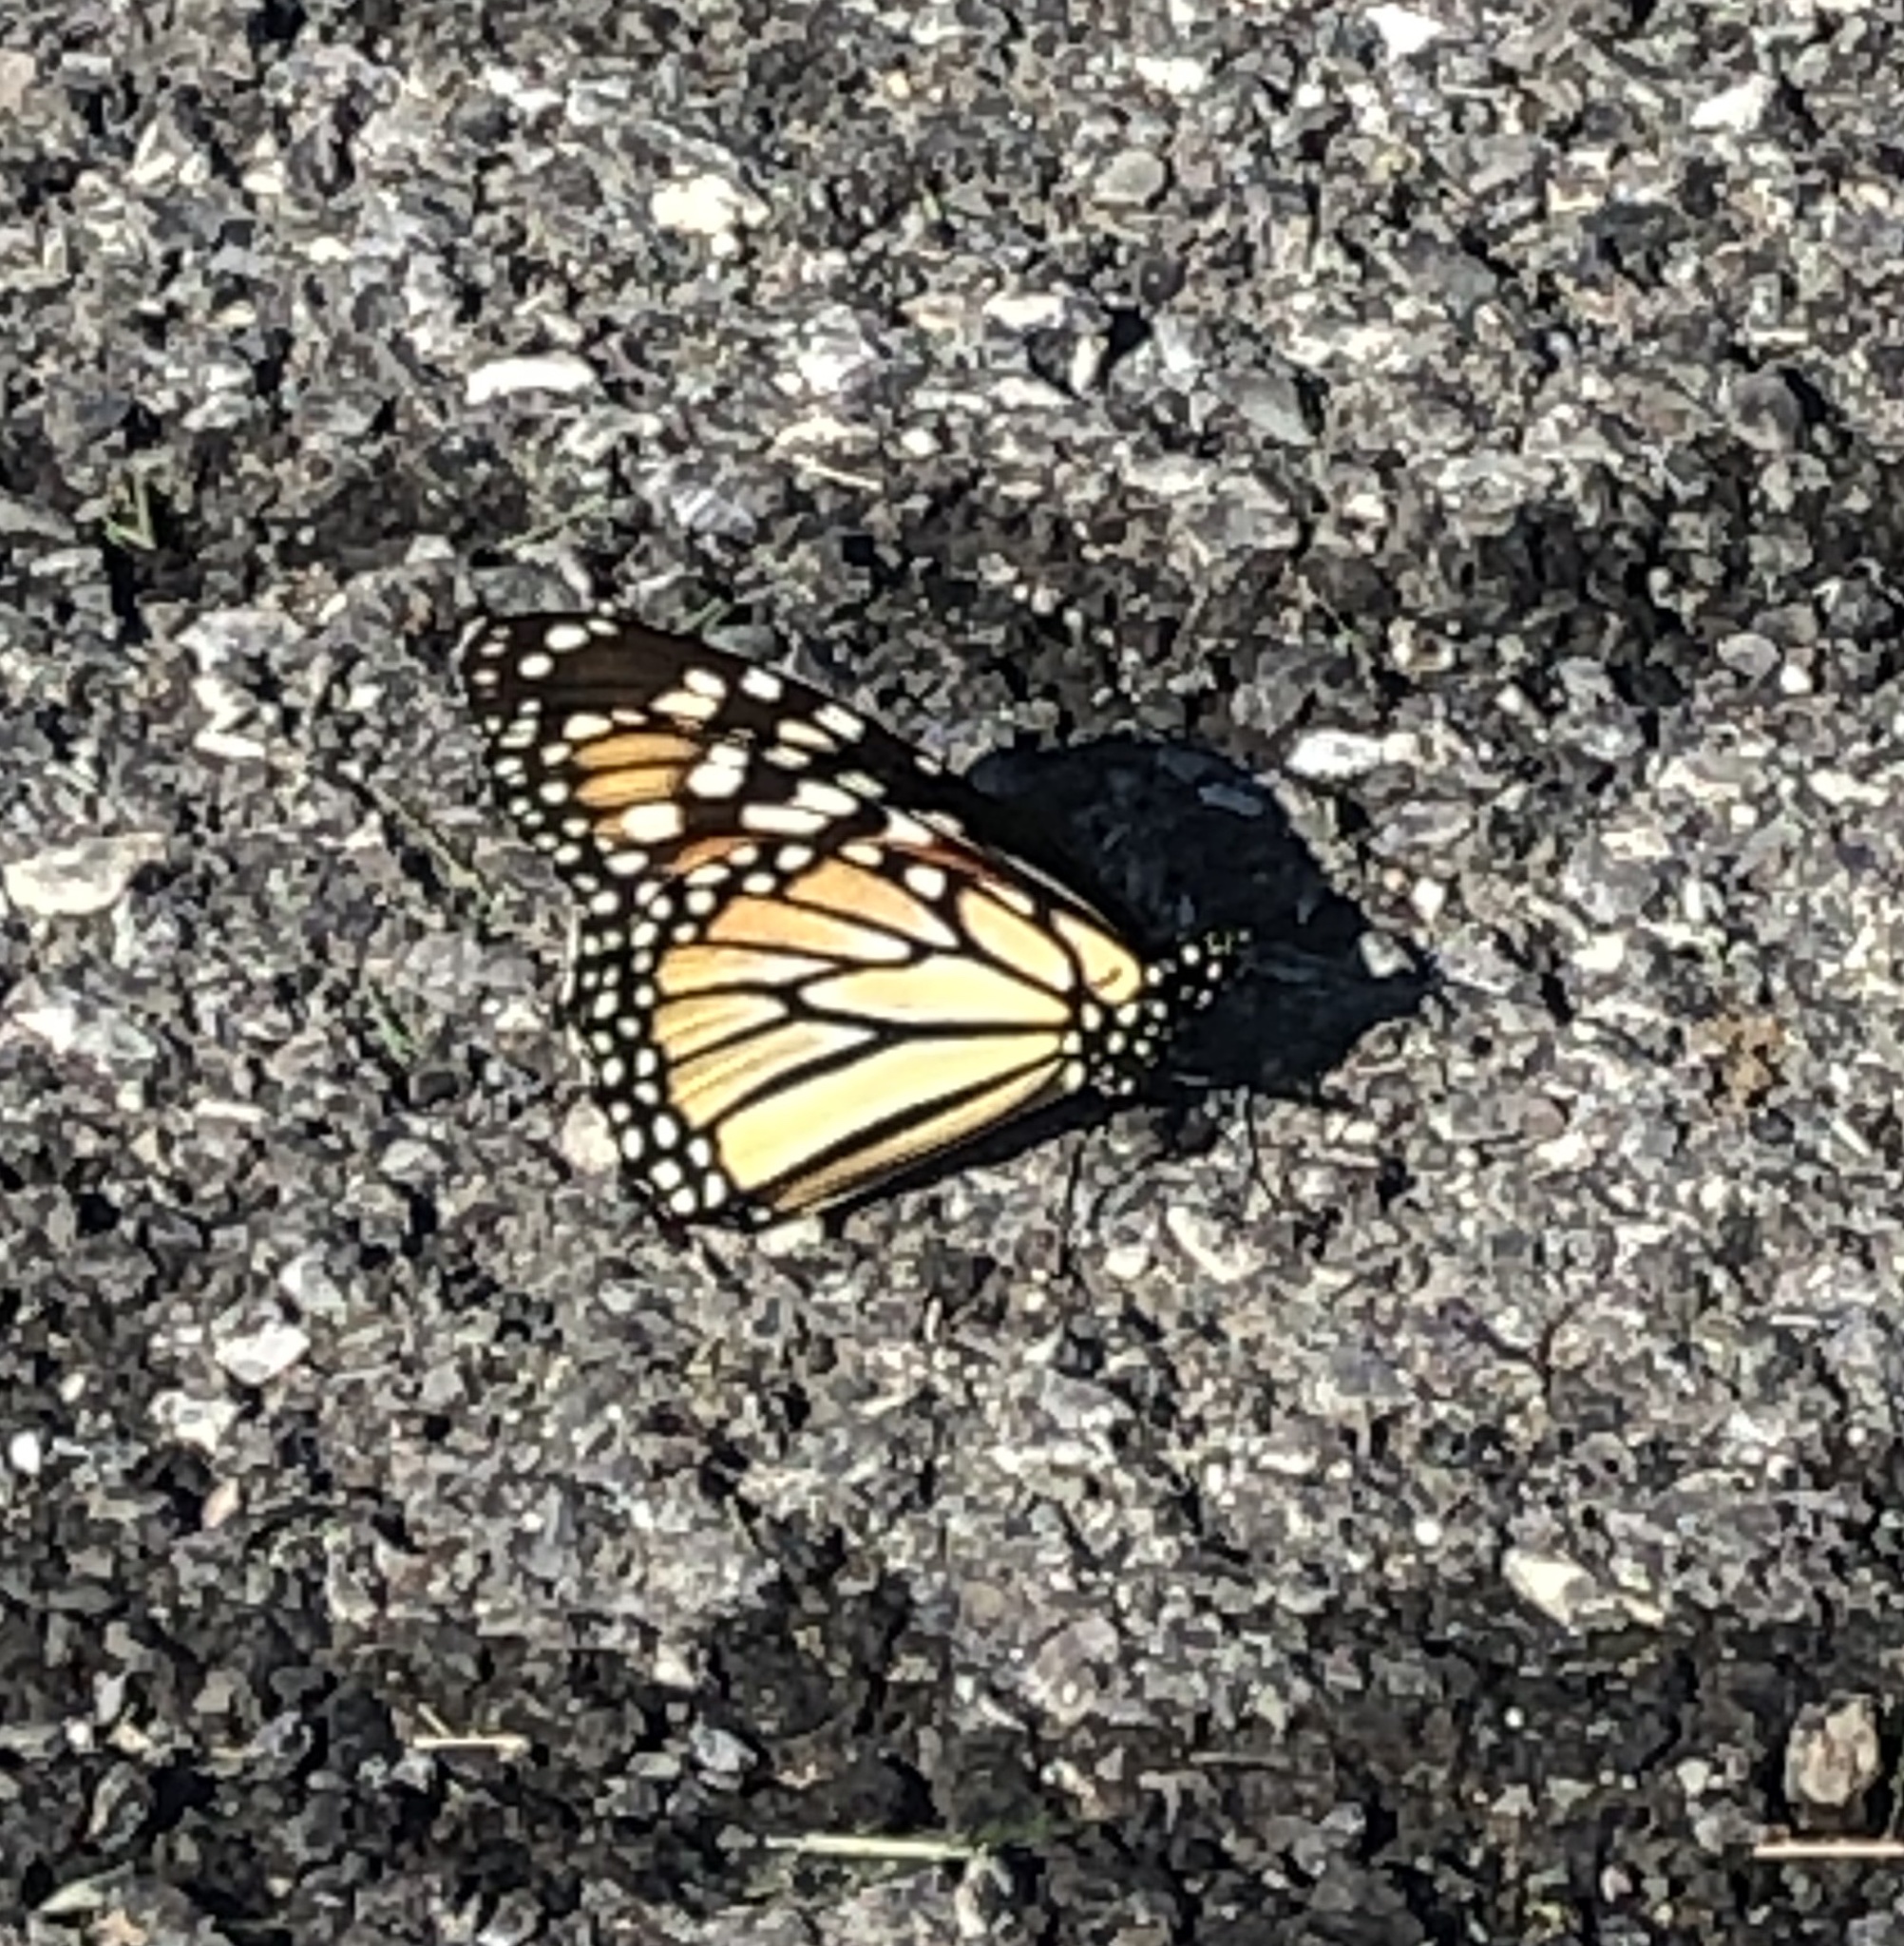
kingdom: Animalia
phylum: Arthropoda
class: Insecta
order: Lepidoptera
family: Nymphalidae
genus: Danaus
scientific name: Danaus plexippus
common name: Monarch
